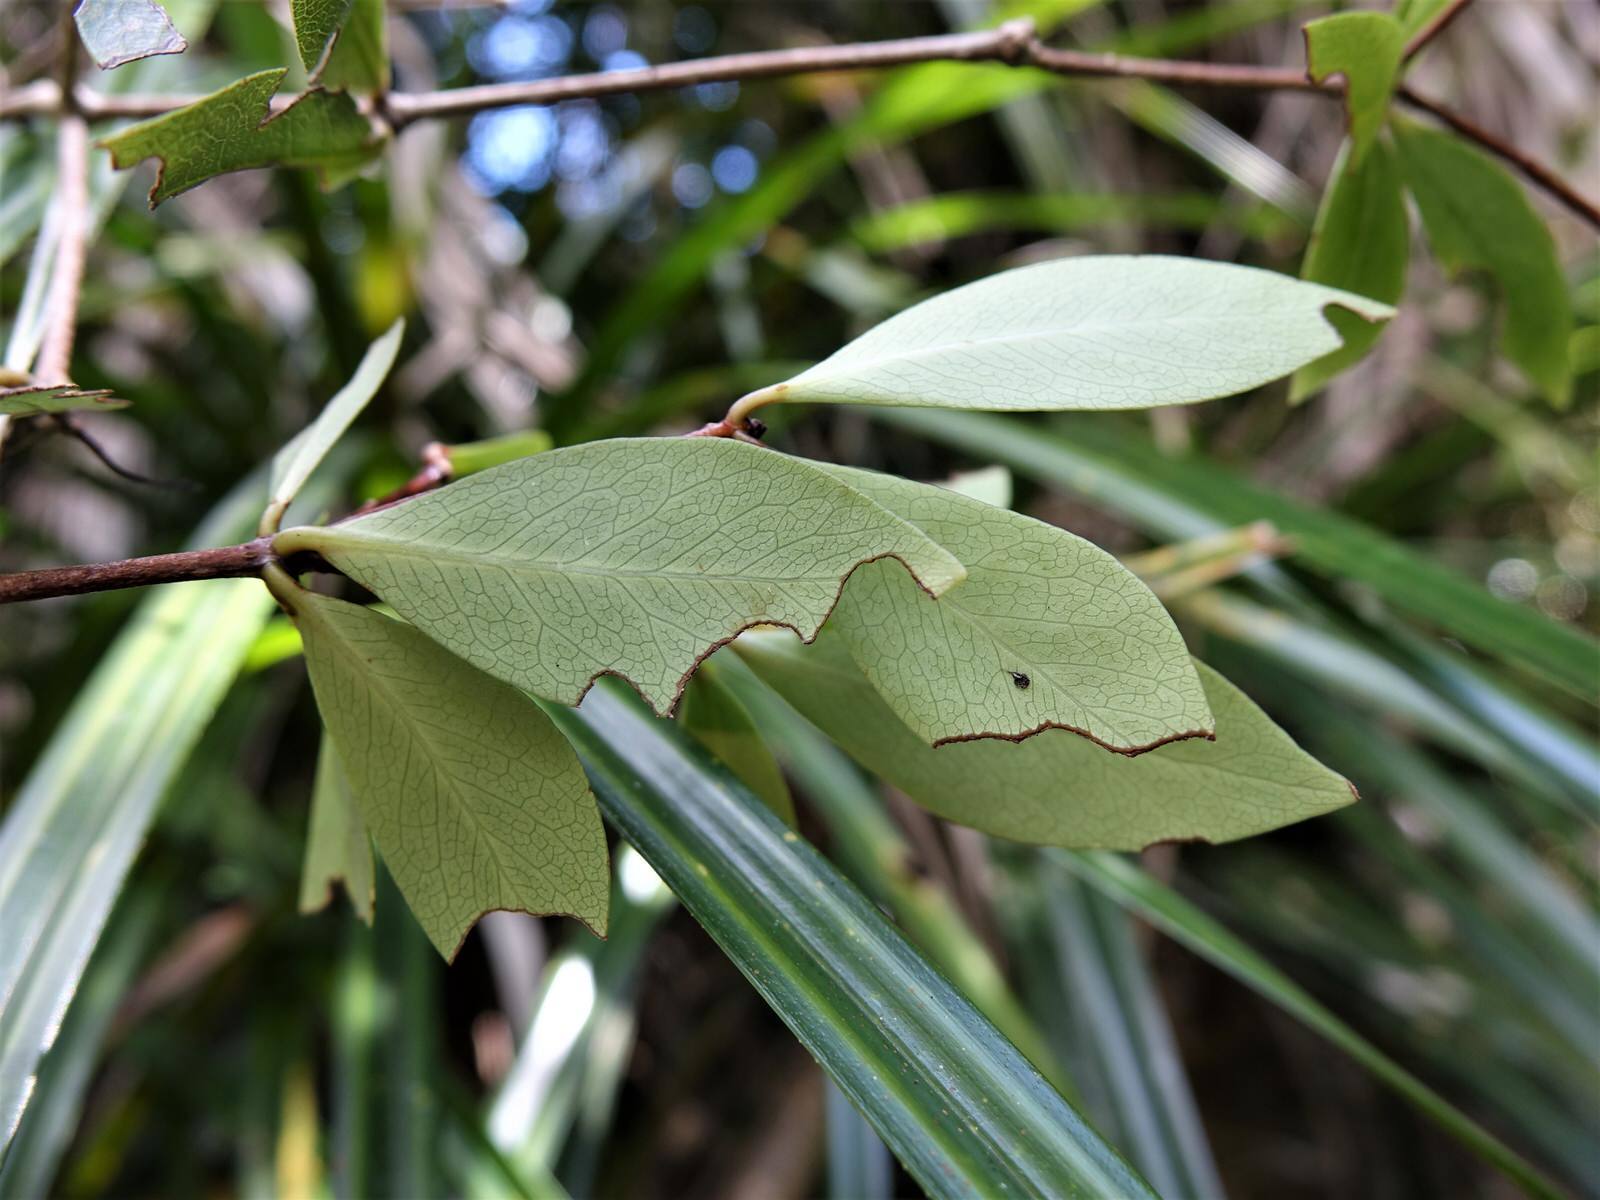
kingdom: Plantae
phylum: Tracheophyta
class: Magnoliopsida
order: Apiales
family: Pittosporaceae
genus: Pittosporum
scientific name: Pittosporum cornifolium
